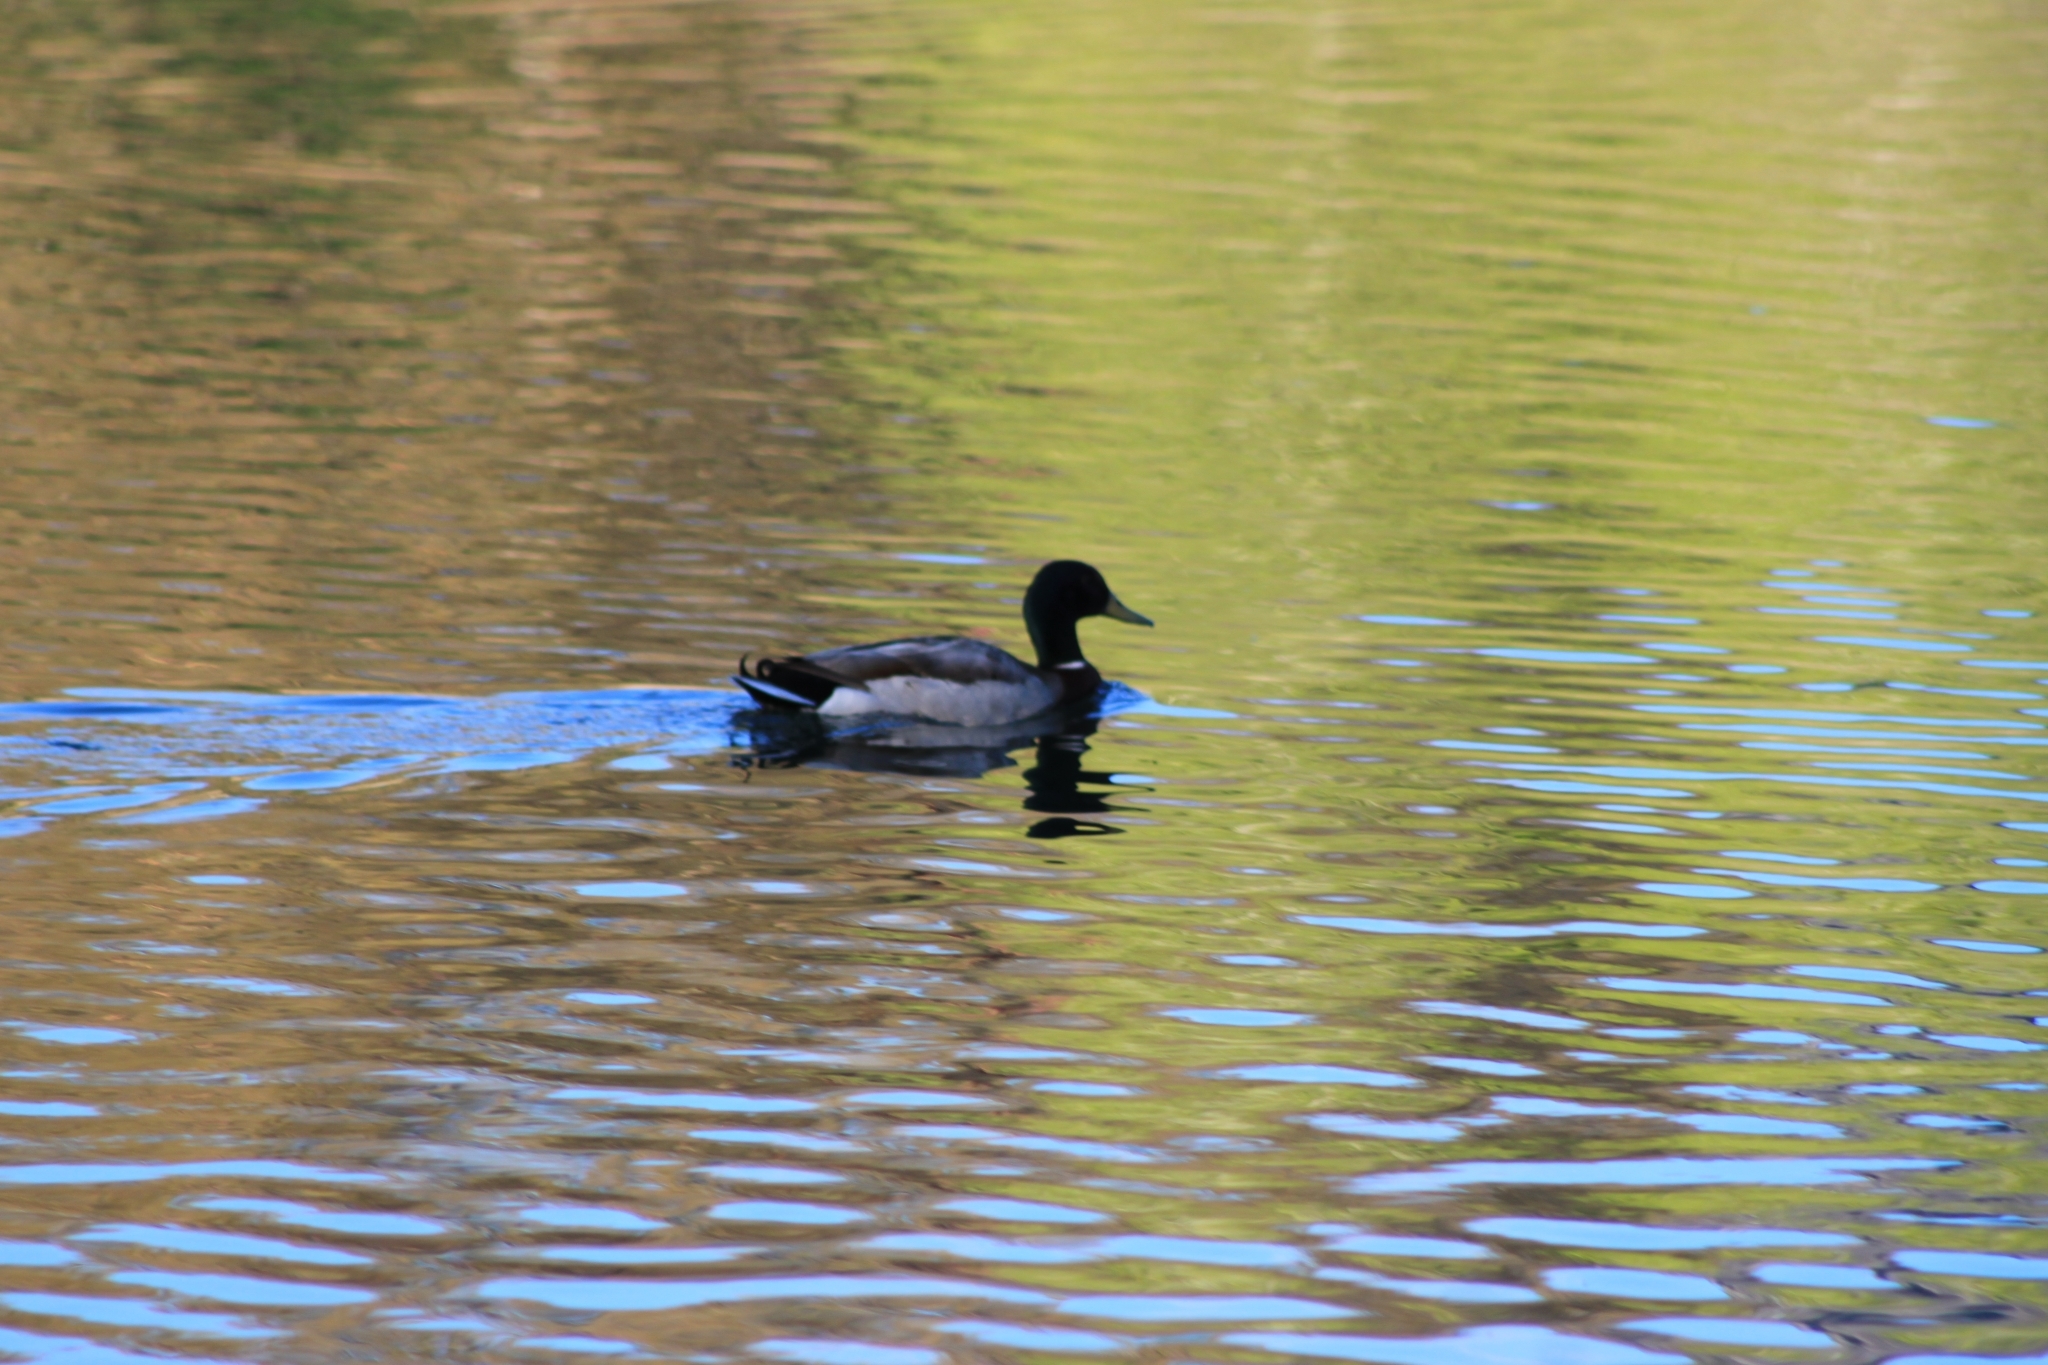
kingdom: Animalia
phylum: Chordata
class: Aves
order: Anseriformes
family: Anatidae
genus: Anas
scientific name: Anas platyrhynchos
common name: Mallard
